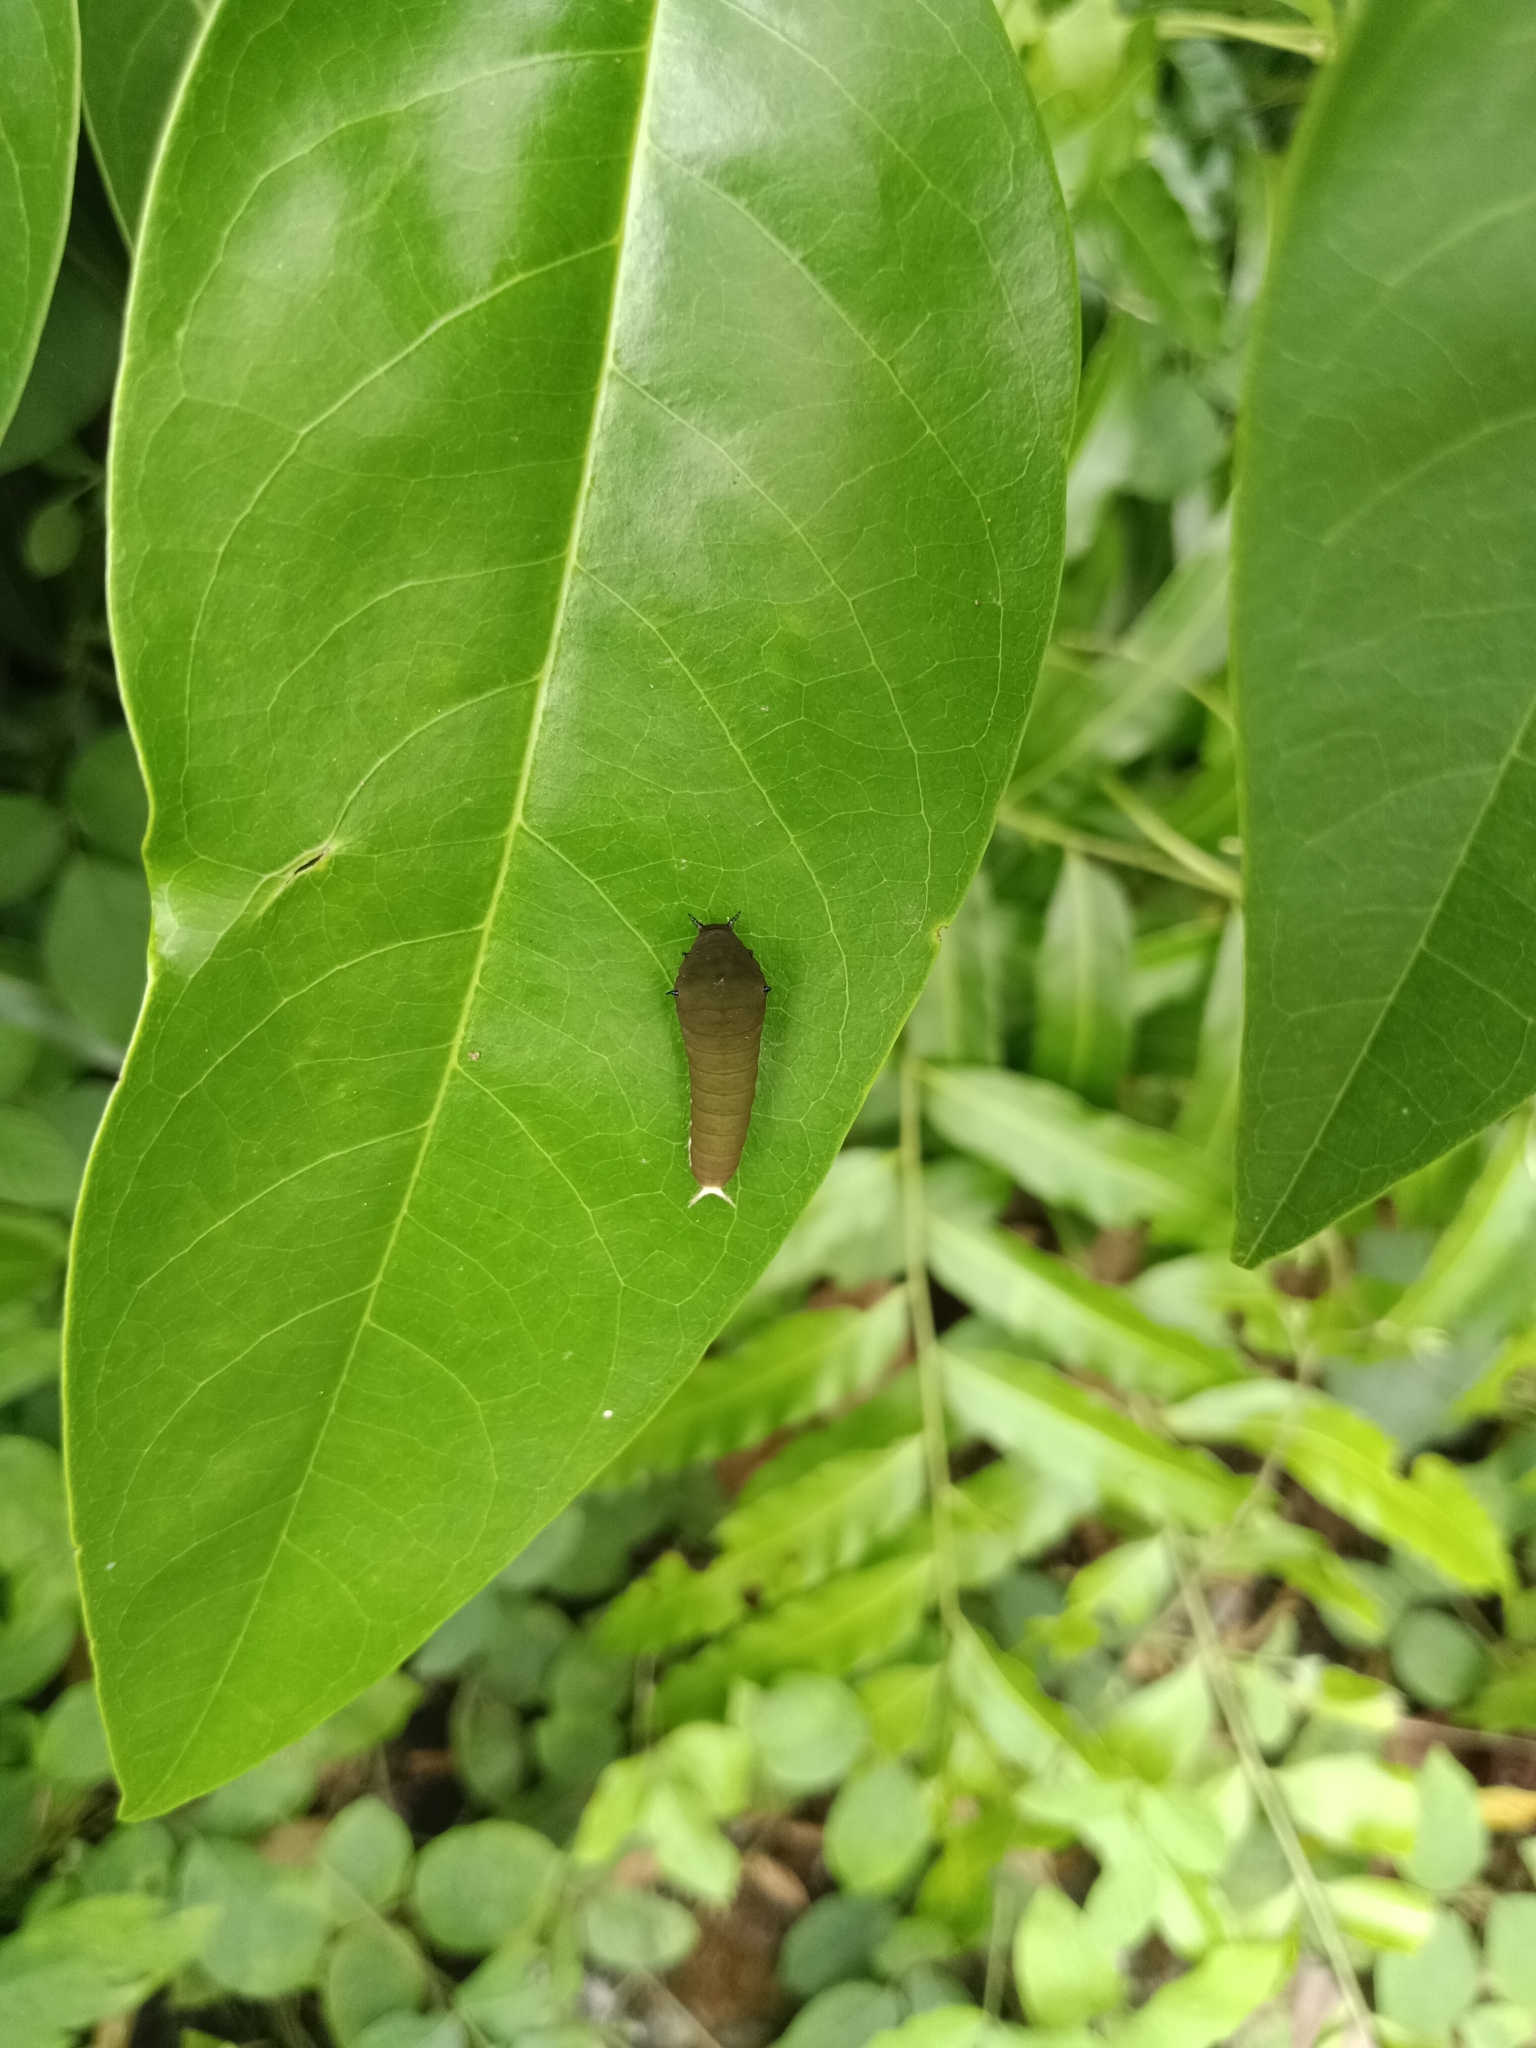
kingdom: Animalia
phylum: Arthropoda
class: Insecta
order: Lepidoptera
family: Papilionidae
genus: Graphium
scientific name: Graphium doson
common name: Common jay
